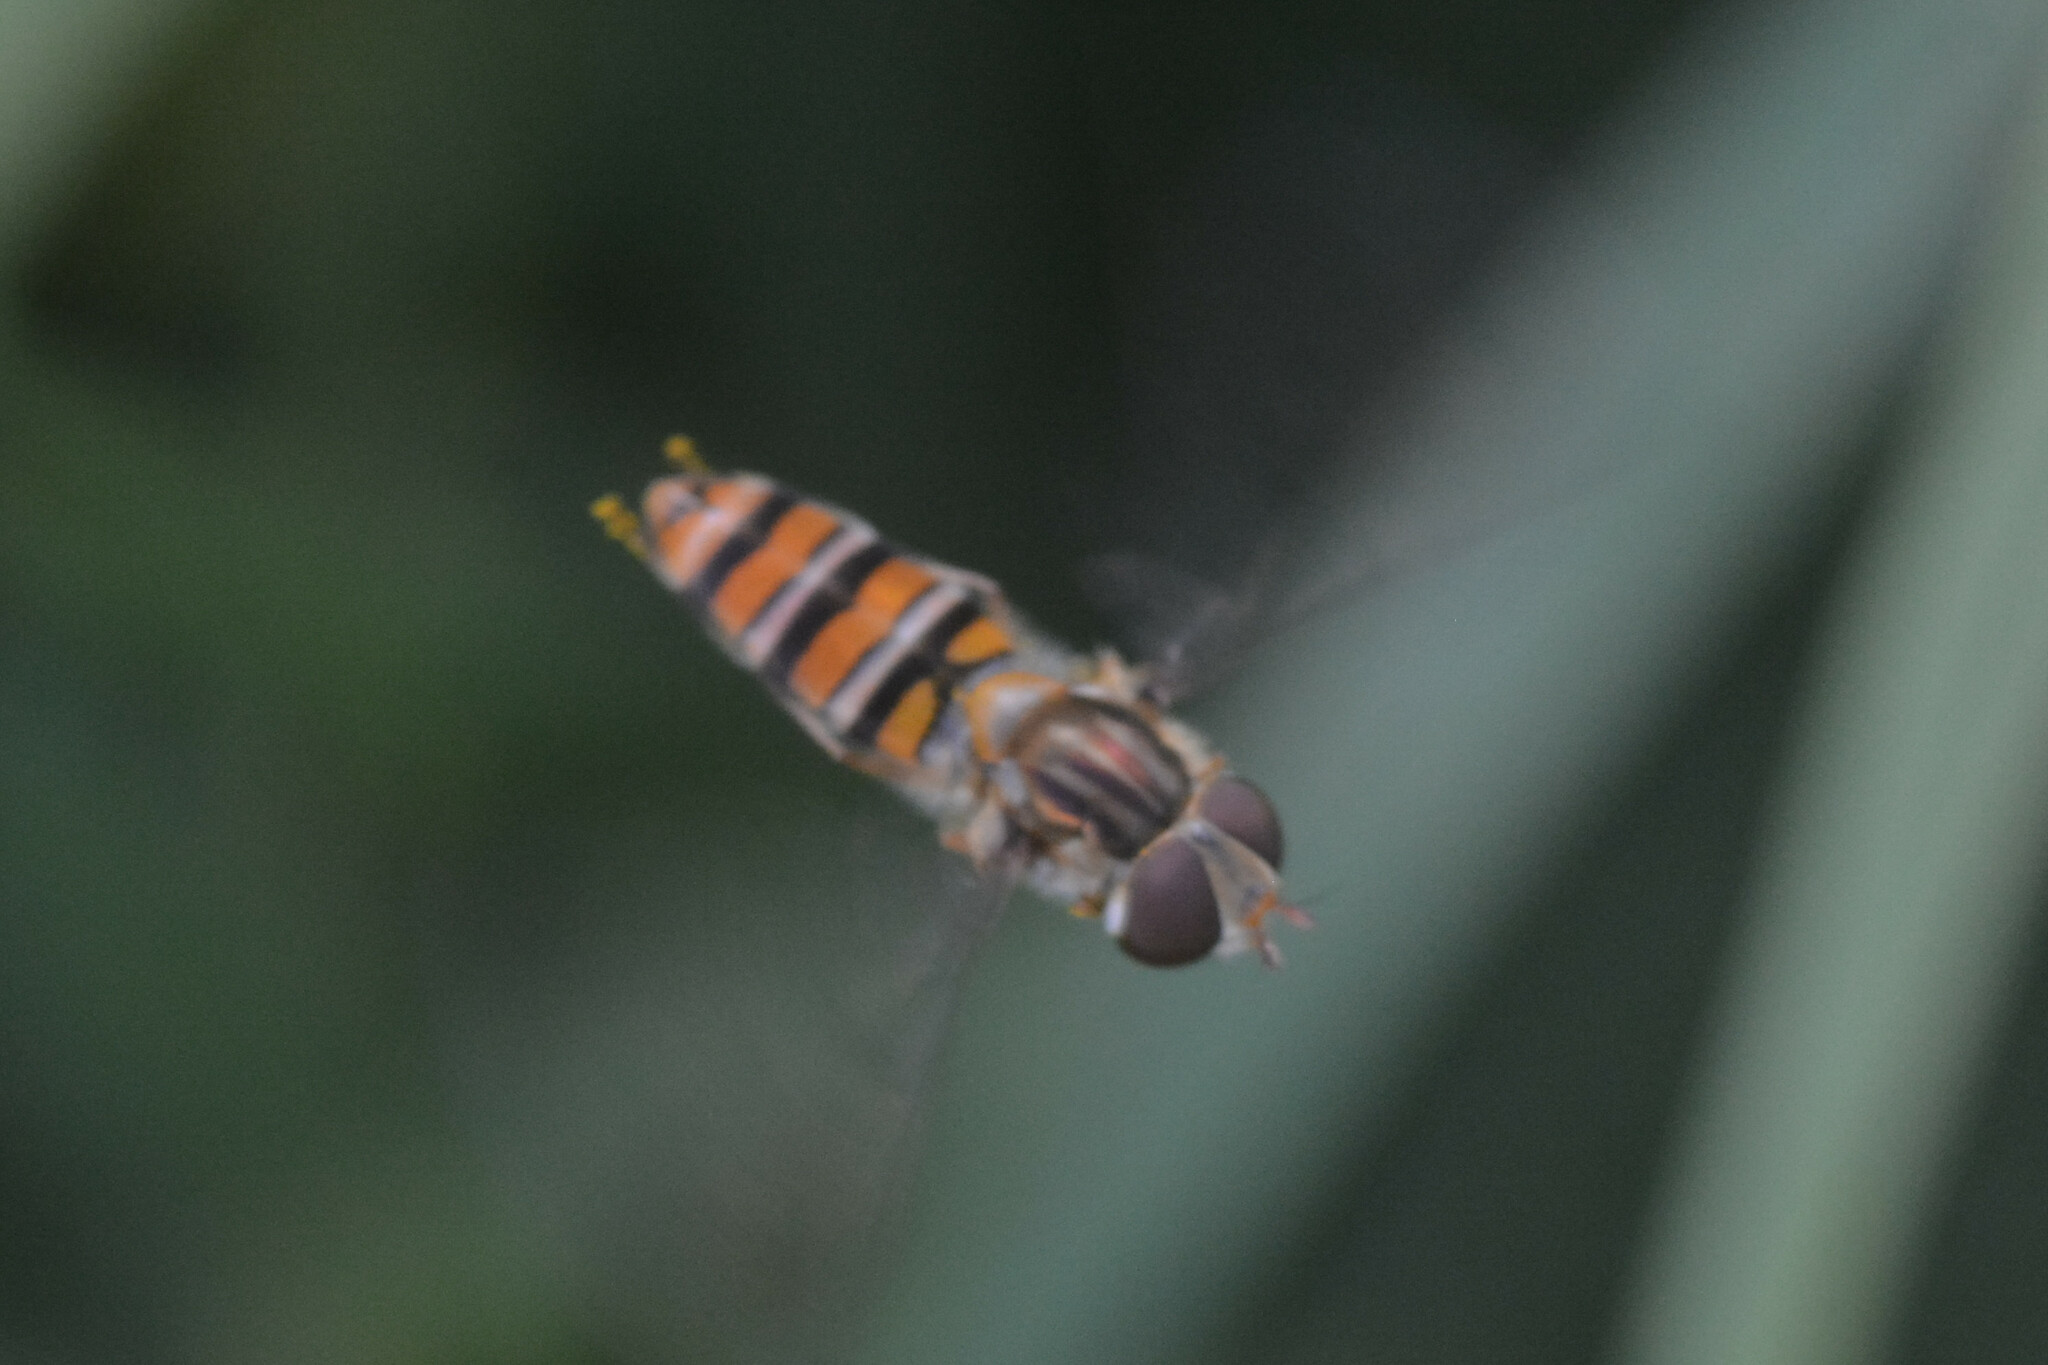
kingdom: Animalia
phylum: Arthropoda
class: Insecta
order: Diptera
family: Syrphidae
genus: Episyrphus
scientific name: Episyrphus balteatus
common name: Marmalade hoverfly
